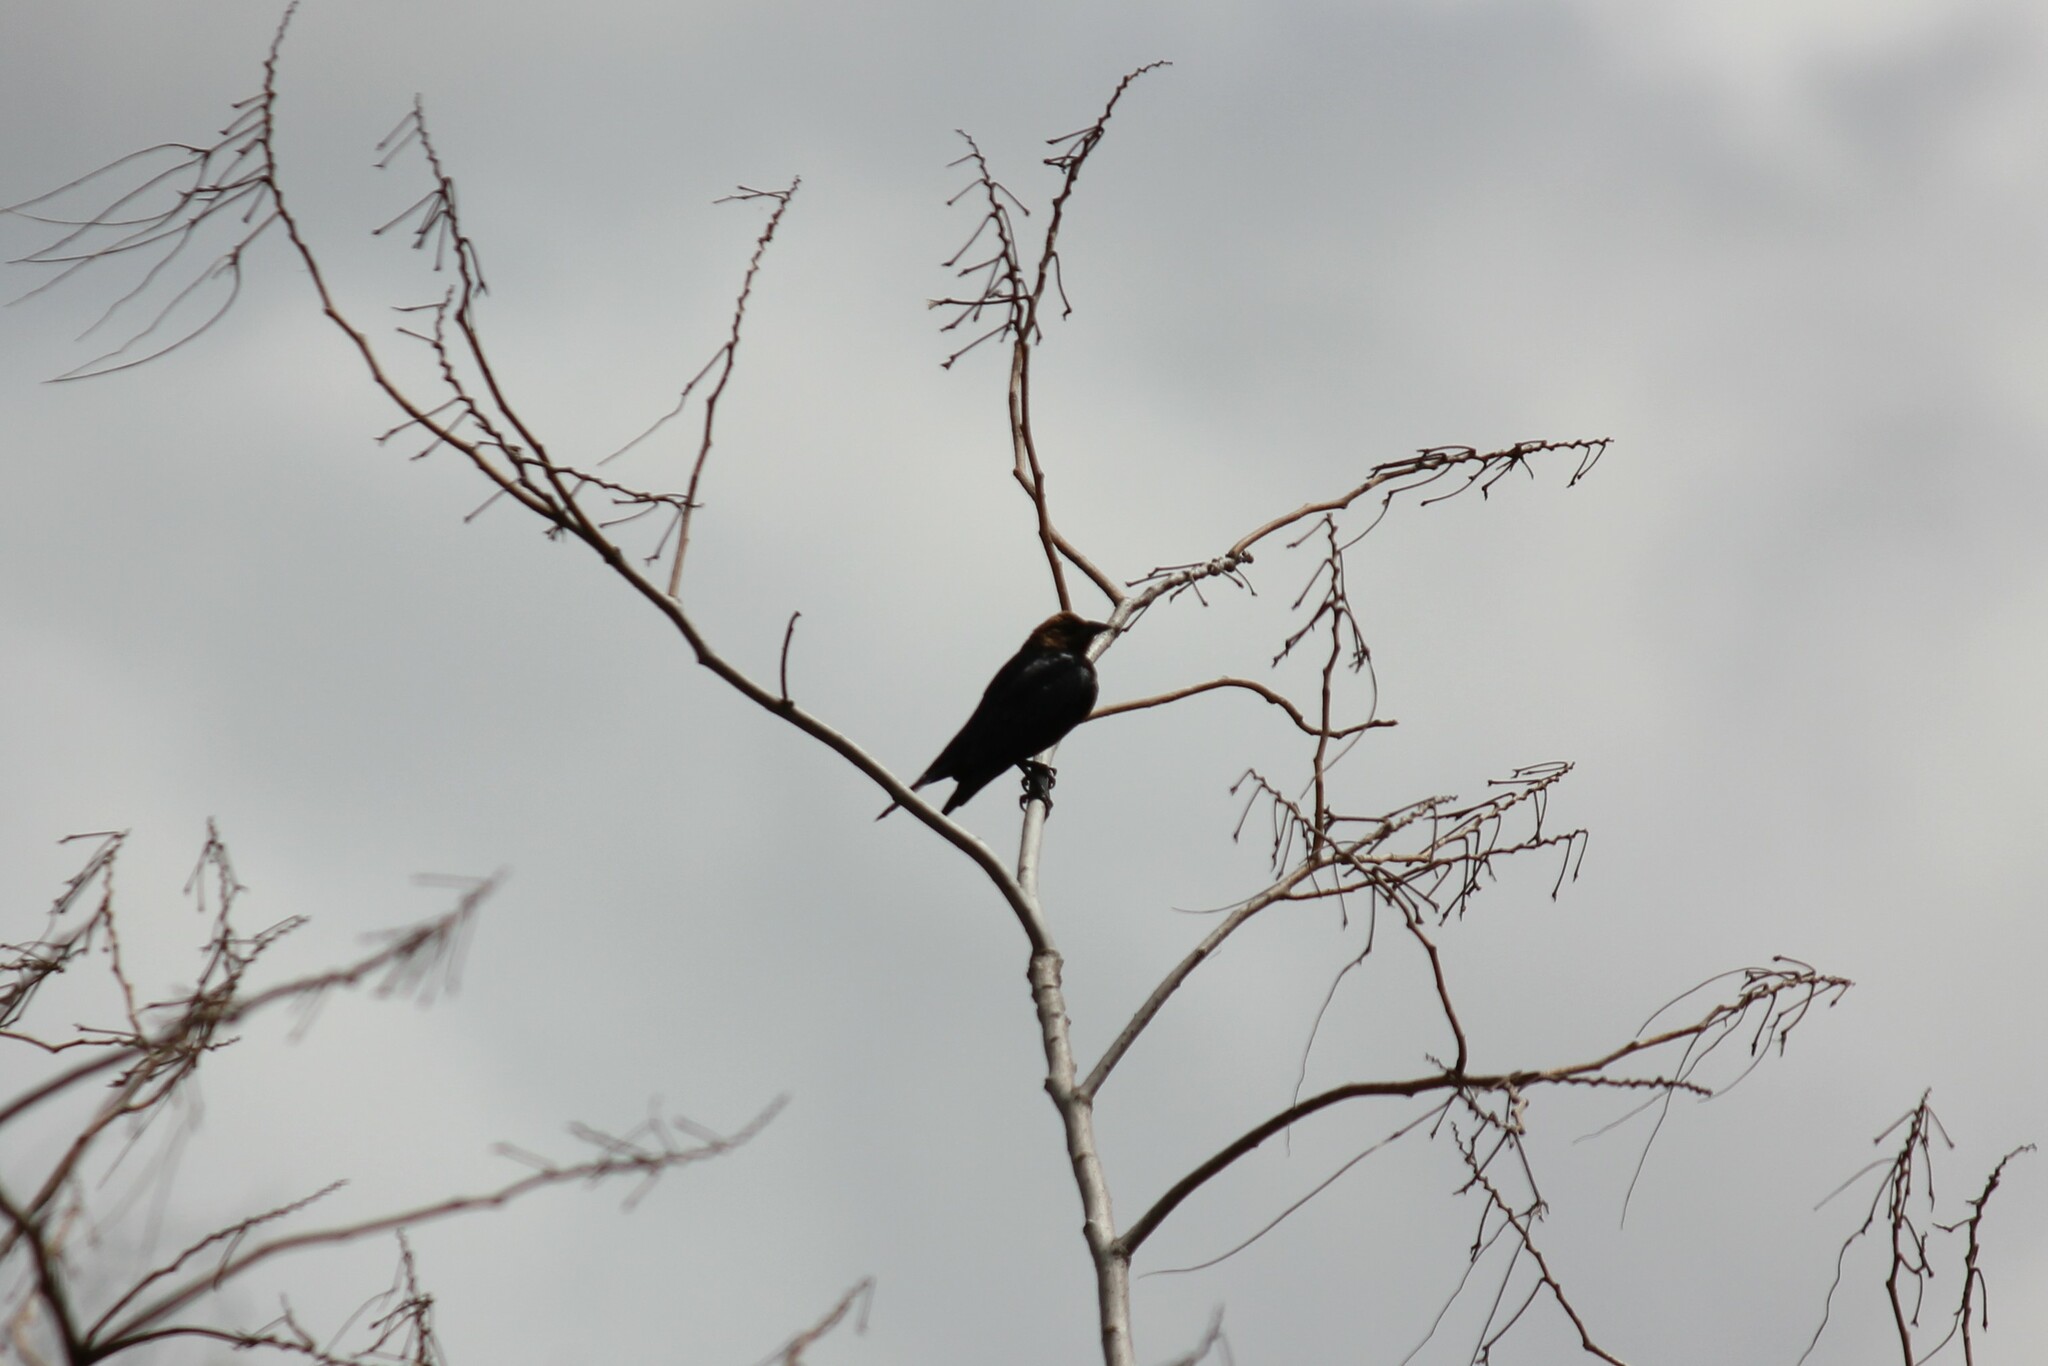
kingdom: Animalia
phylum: Chordata
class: Aves
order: Passeriformes
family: Icteridae
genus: Molothrus
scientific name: Molothrus ater
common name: Brown-headed cowbird
